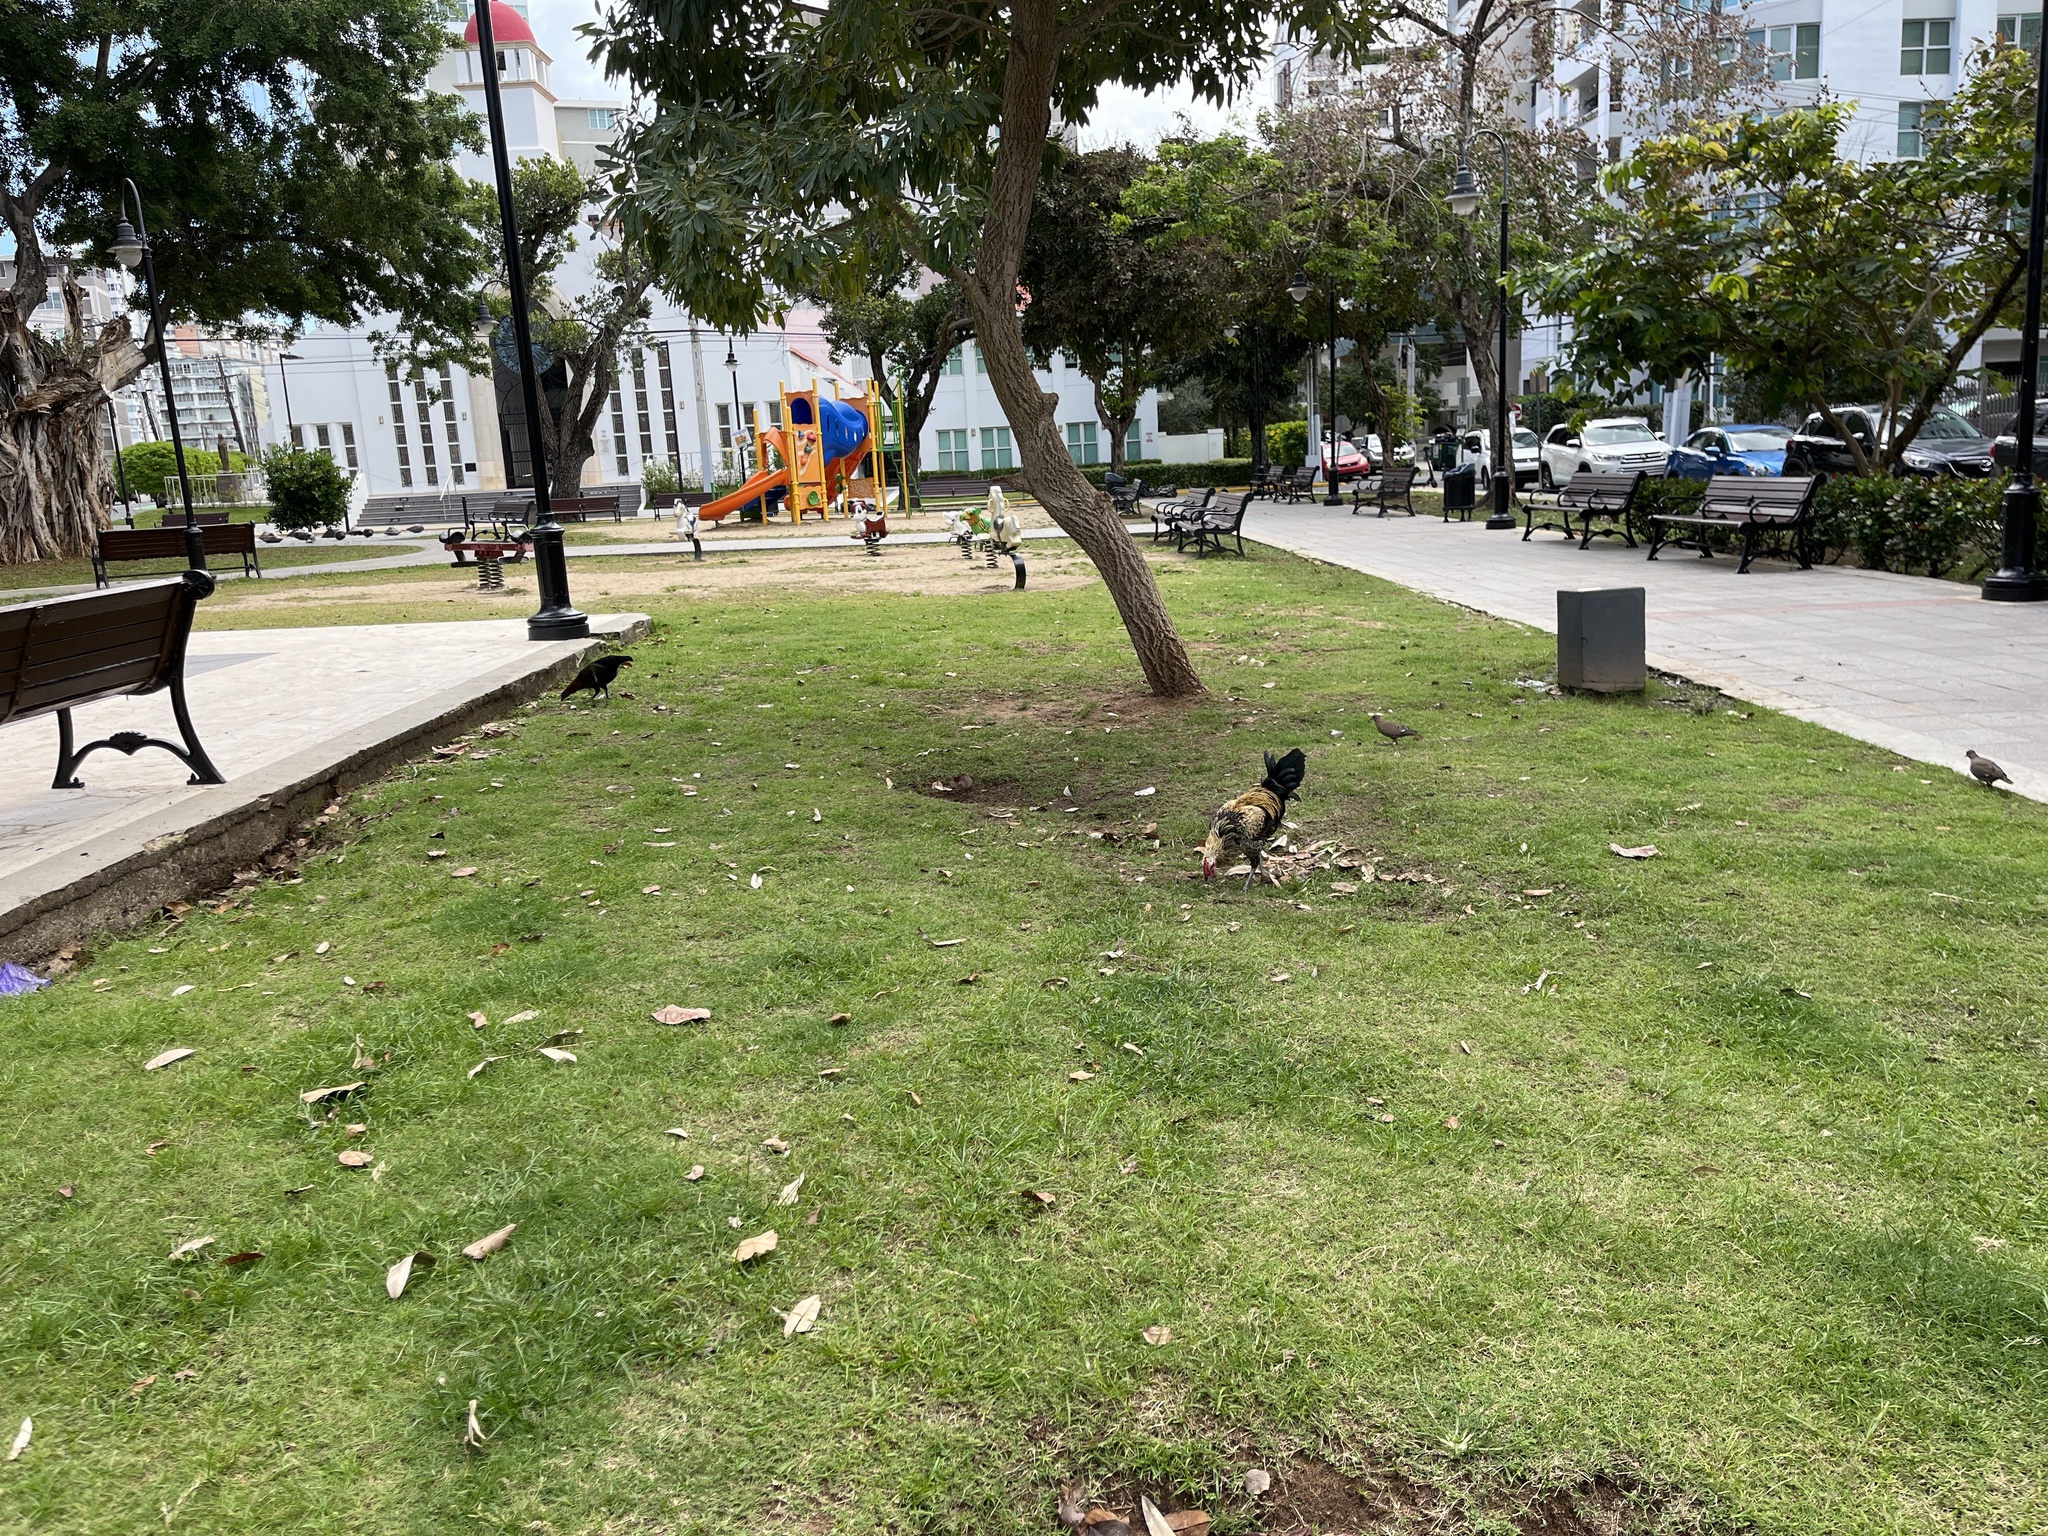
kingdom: Animalia
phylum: Chordata
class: Aves
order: Galliformes
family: Phasianidae
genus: Gallus
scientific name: Gallus gallus
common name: Red junglefowl
